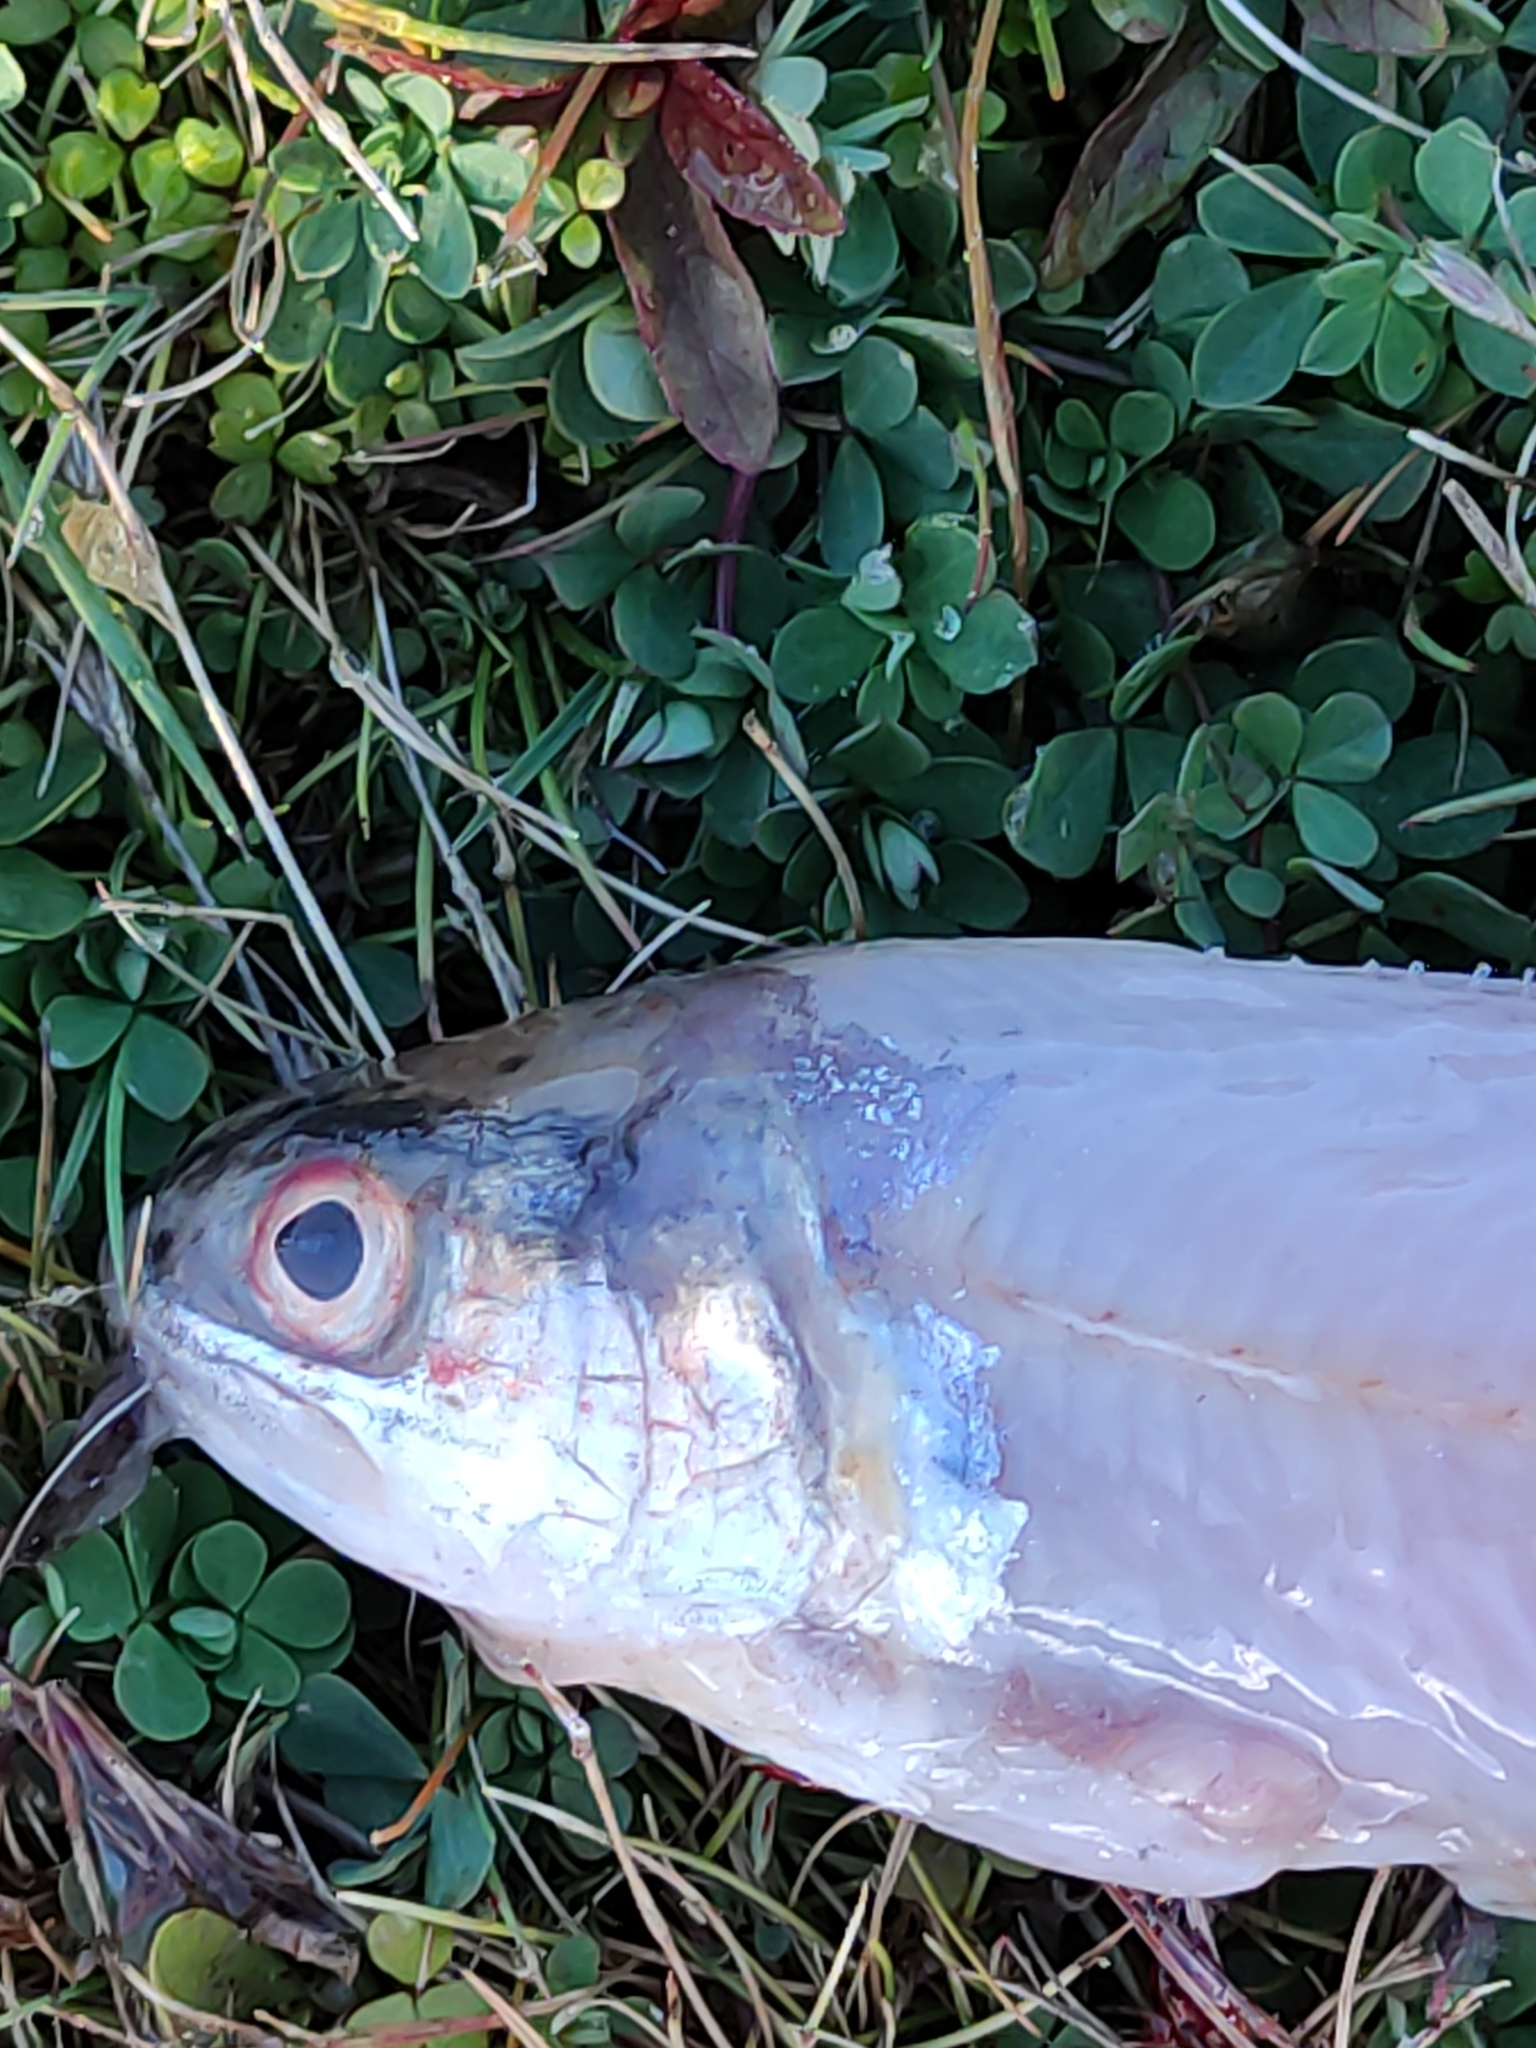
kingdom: Animalia
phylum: Chordata
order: Salmoniformes
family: Salmonidae
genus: Oncorhynchus
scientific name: Oncorhynchus mykiss
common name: Rainbow trout
